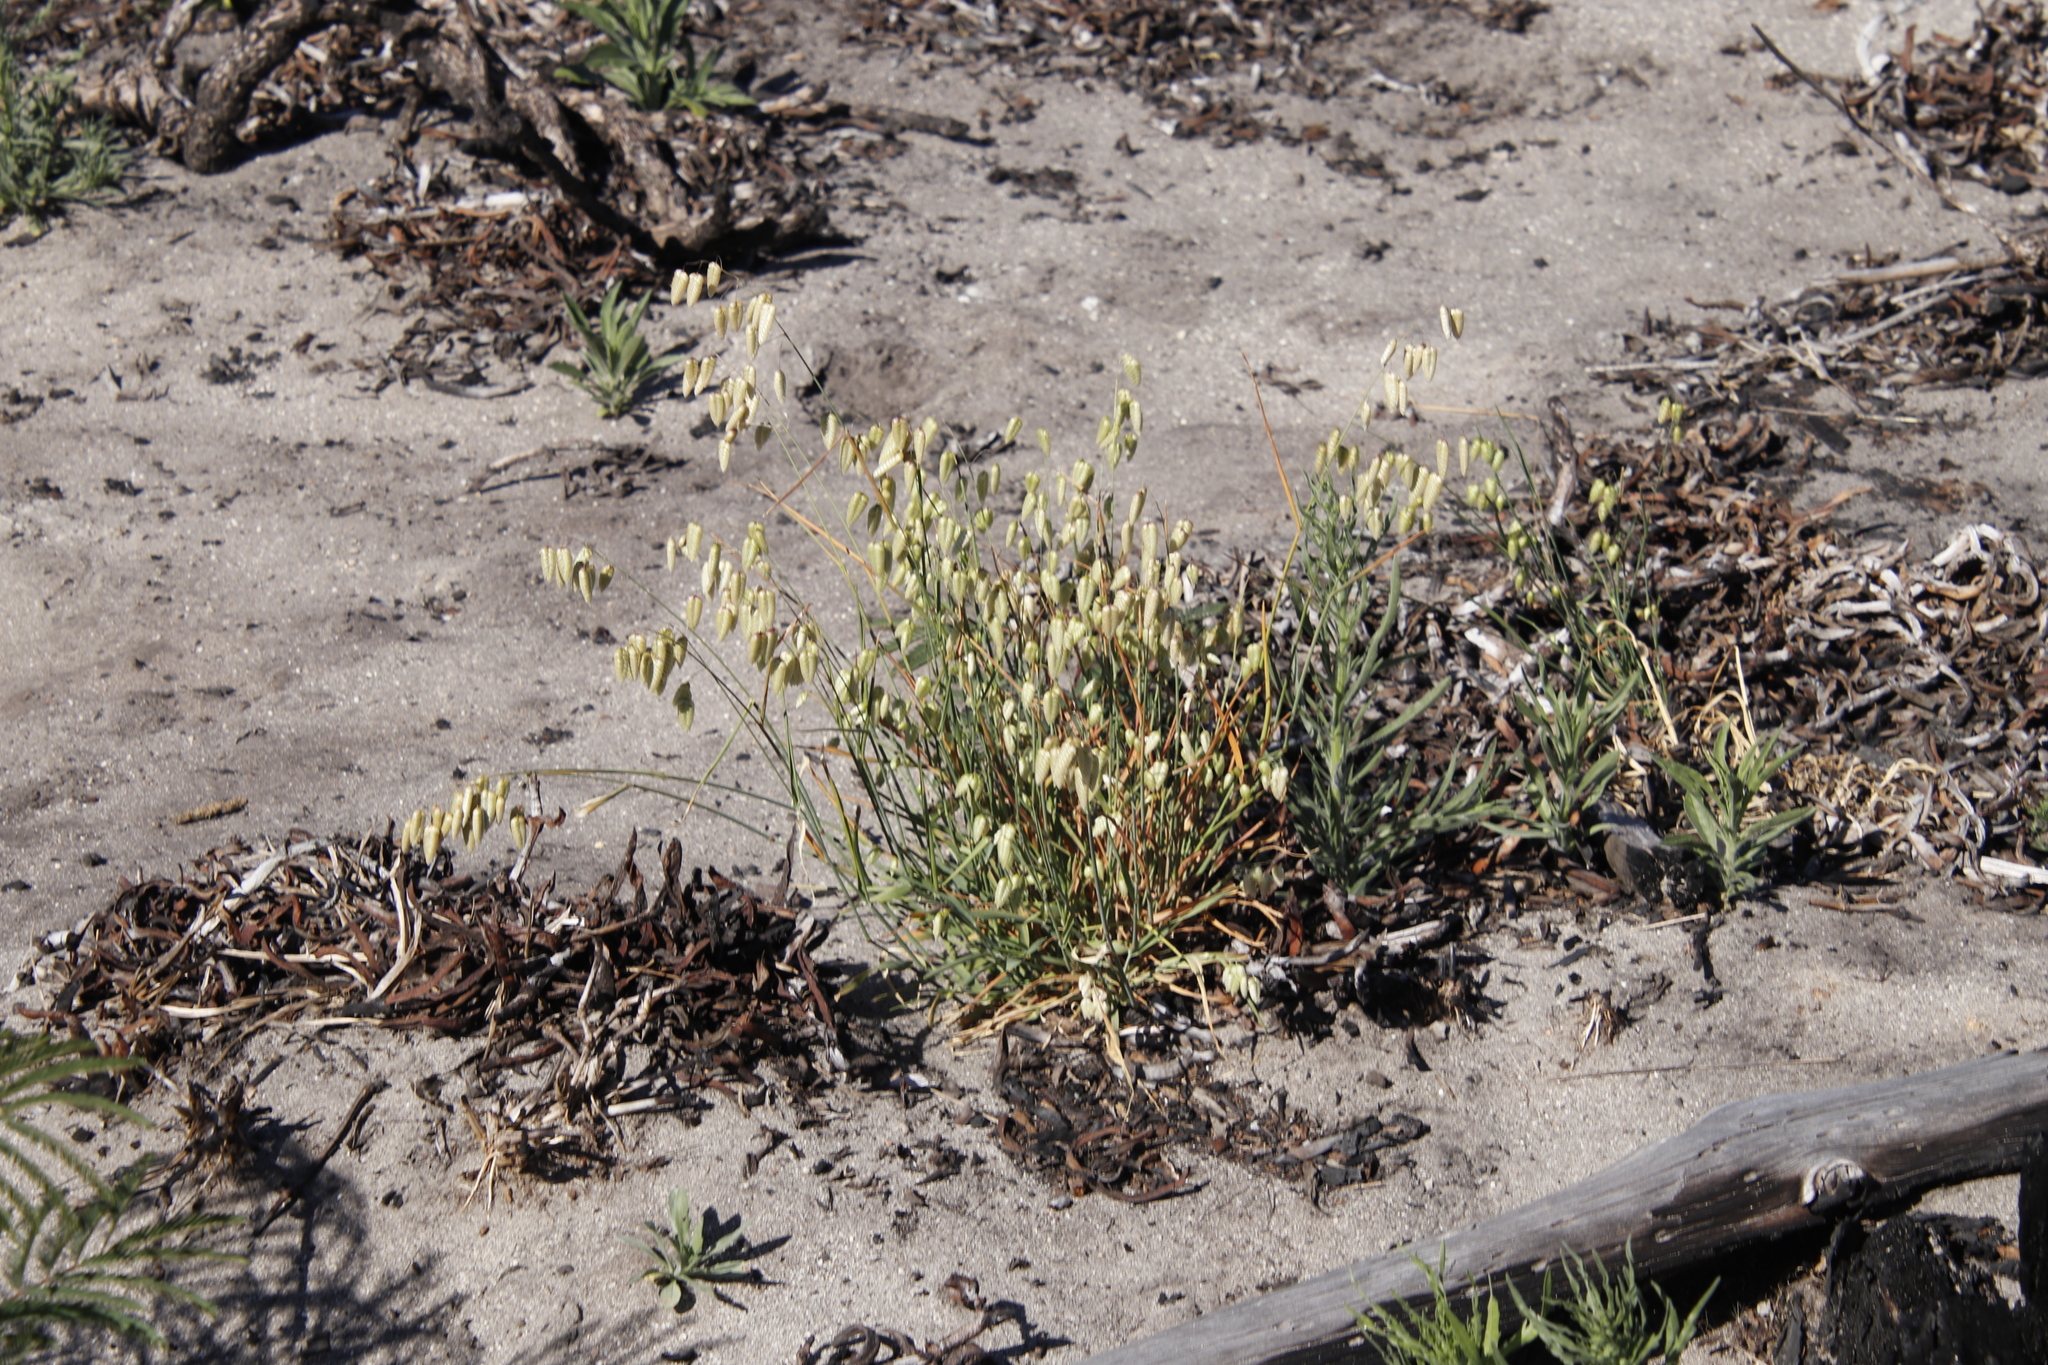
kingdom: Plantae
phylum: Tracheophyta
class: Liliopsida
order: Poales
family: Poaceae
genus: Briza
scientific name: Briza maxima
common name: Big quakinggrass
